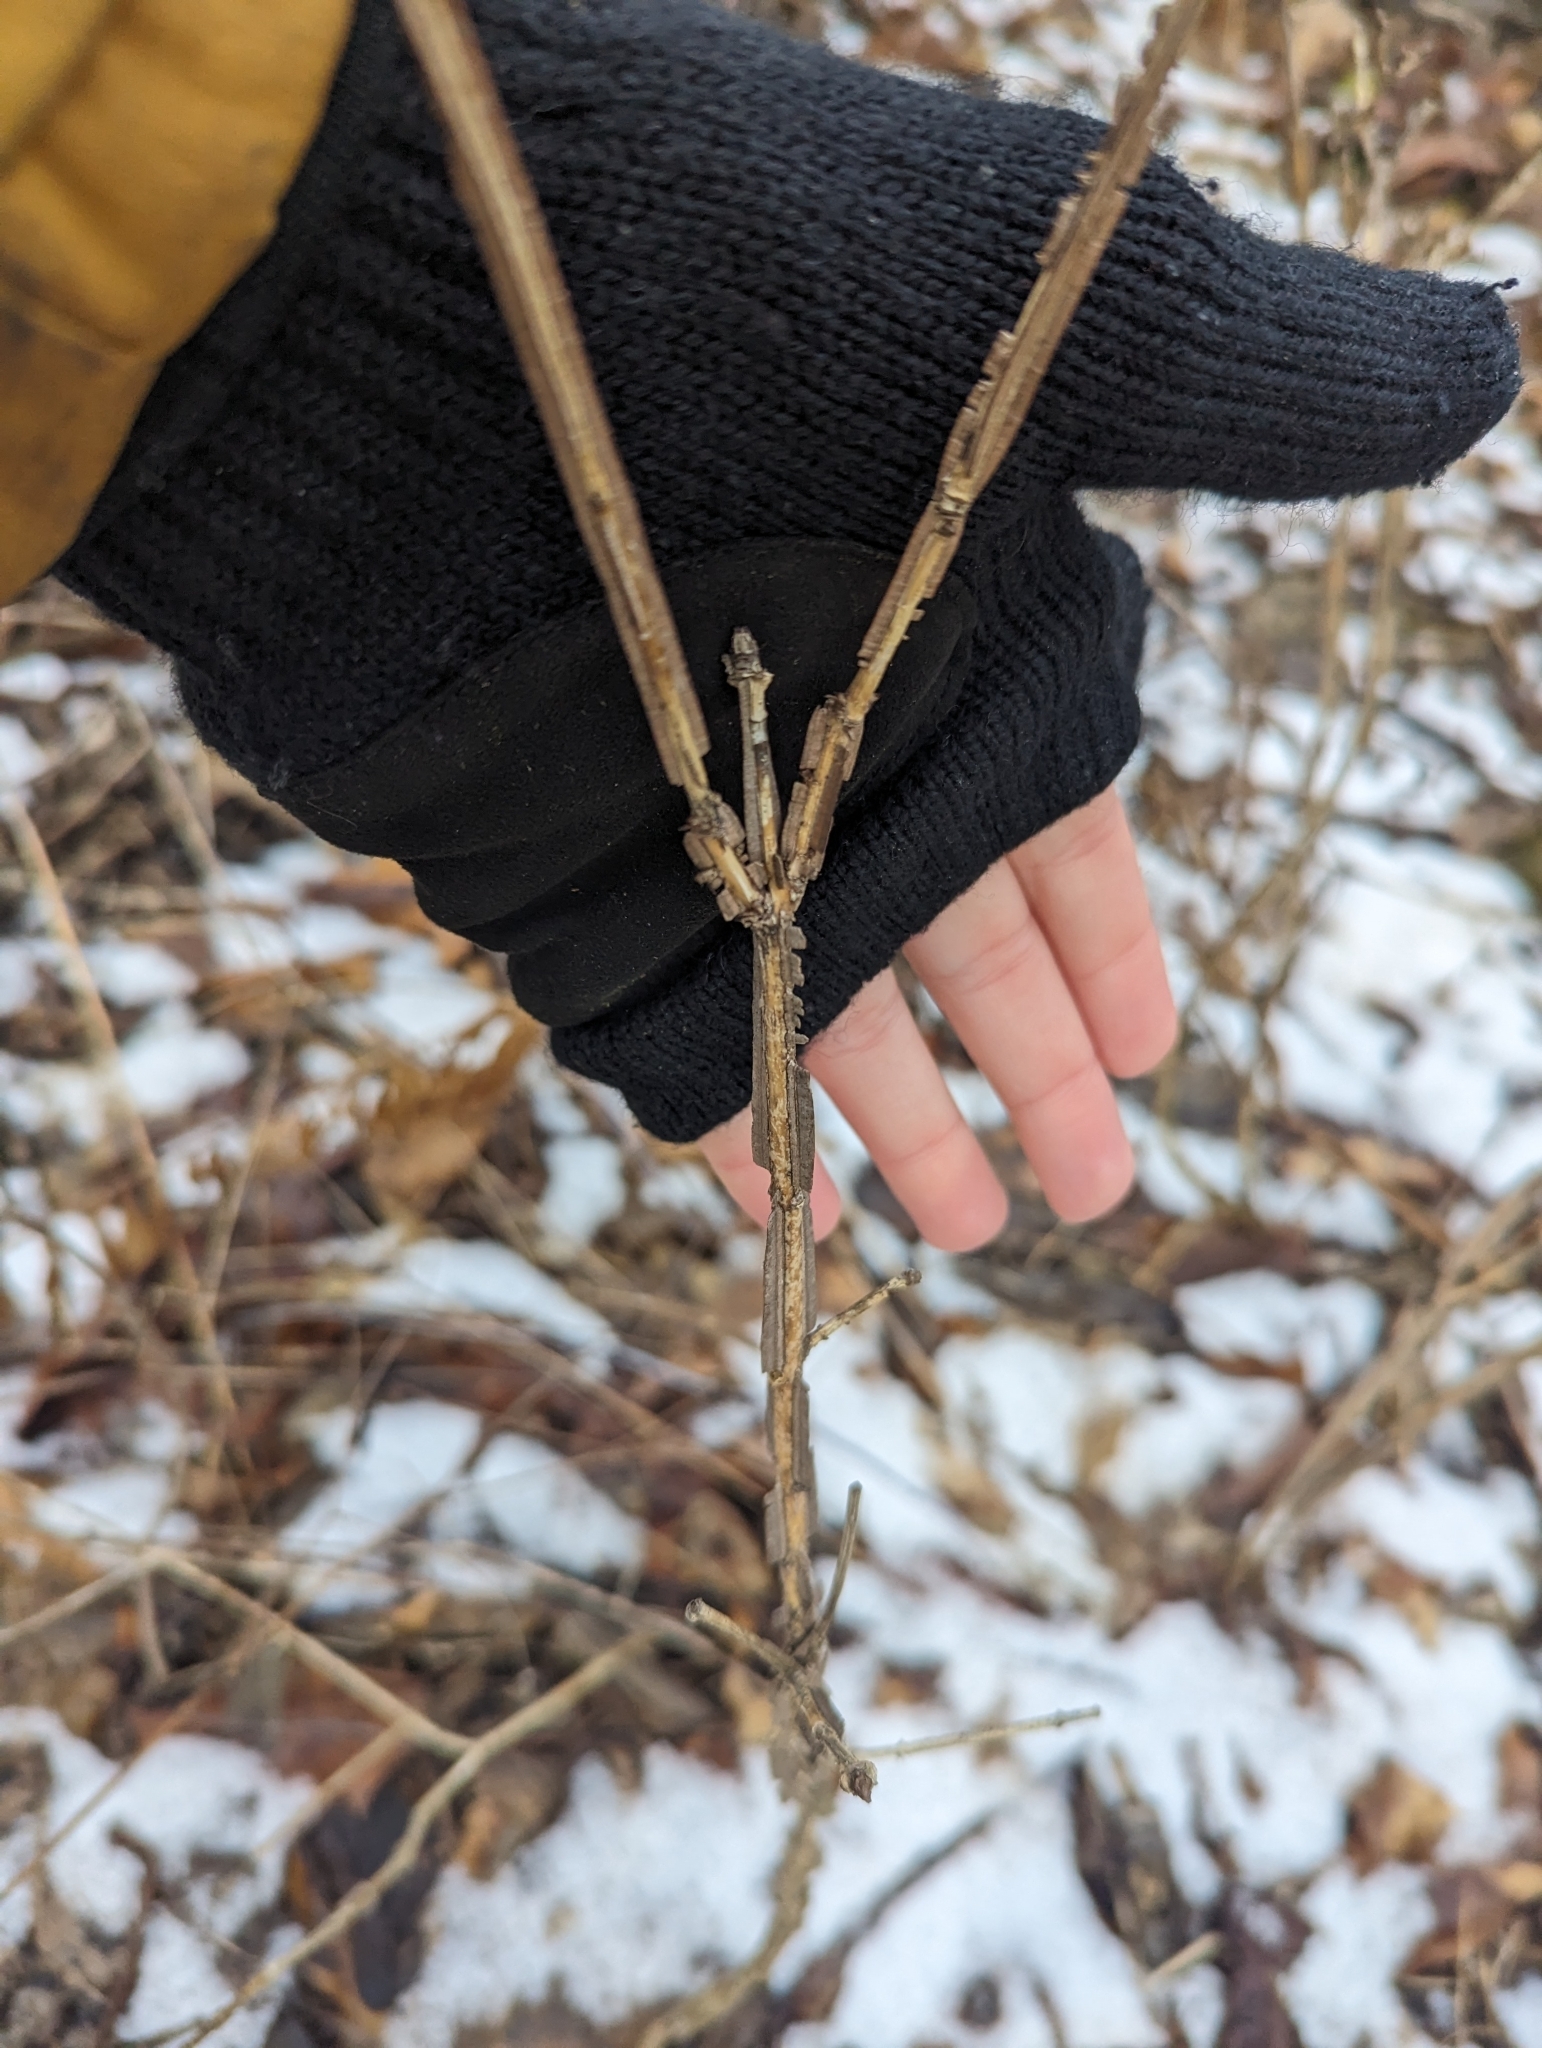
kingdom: Plantae
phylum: Tracheophyta
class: Magnoliopsida
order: Celastrales
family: Celastraceae
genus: Euonymus
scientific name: Euonymus alatus
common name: Winged euonymus
